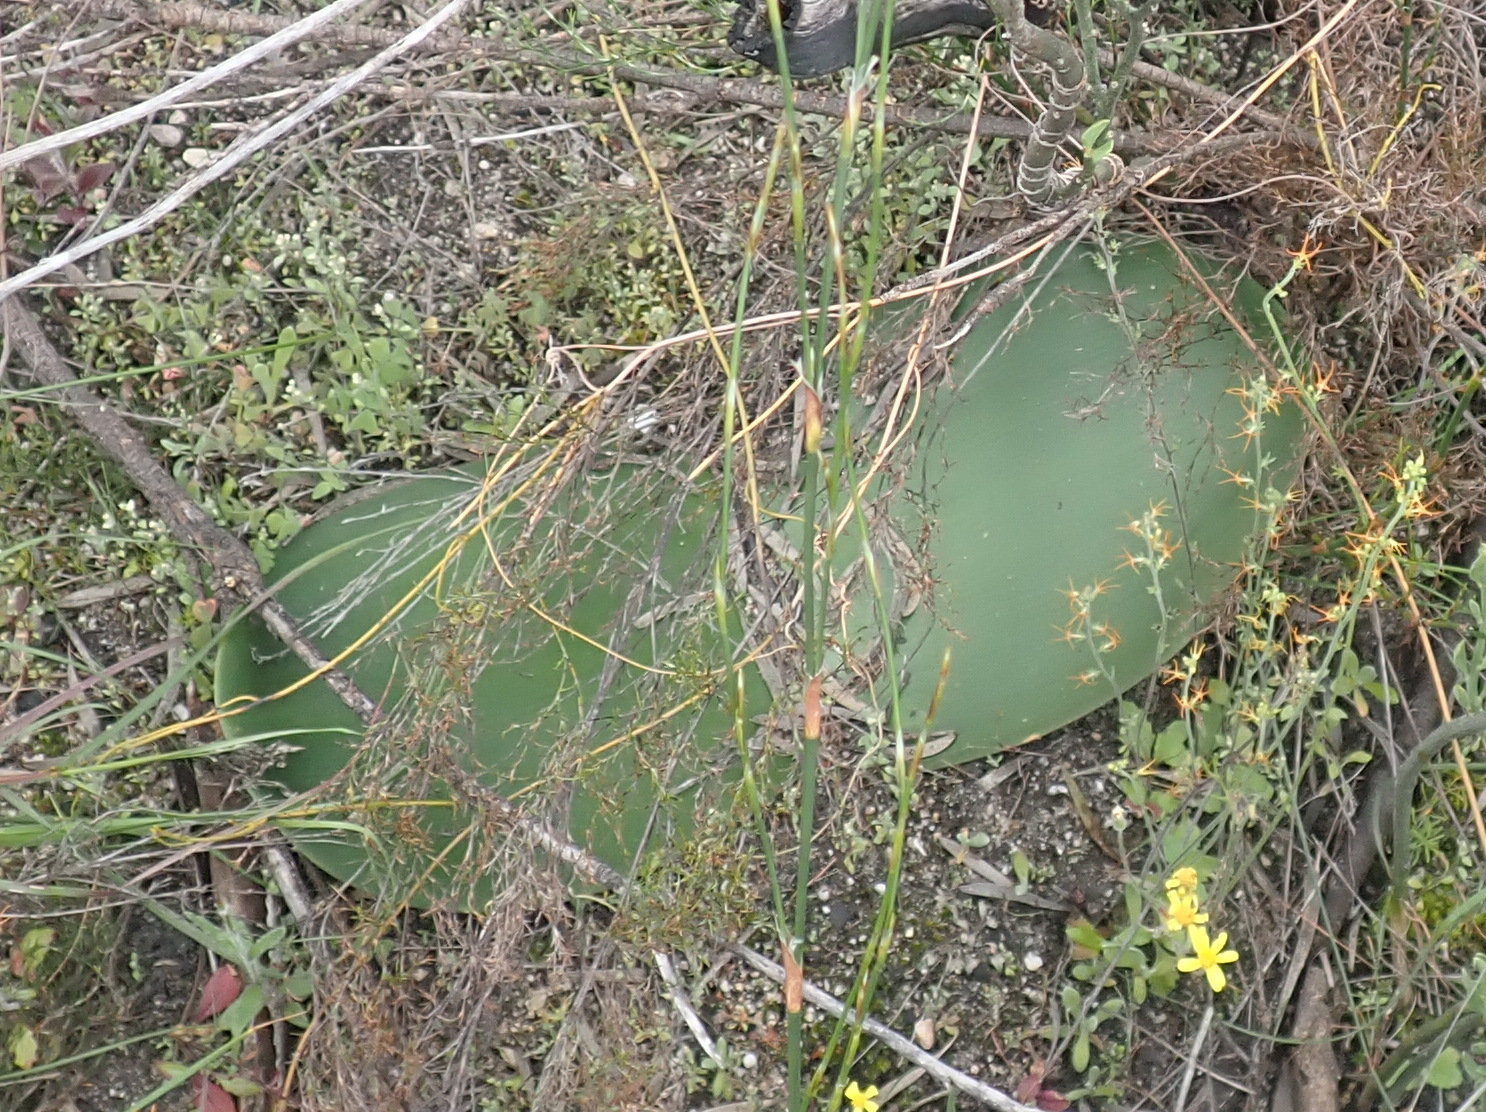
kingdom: Plantae
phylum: Tracheophyta
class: Liliopsida
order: Asparagales
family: Amaryllidaceae
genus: Haemanthus
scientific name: Haemanthus sanguineus
